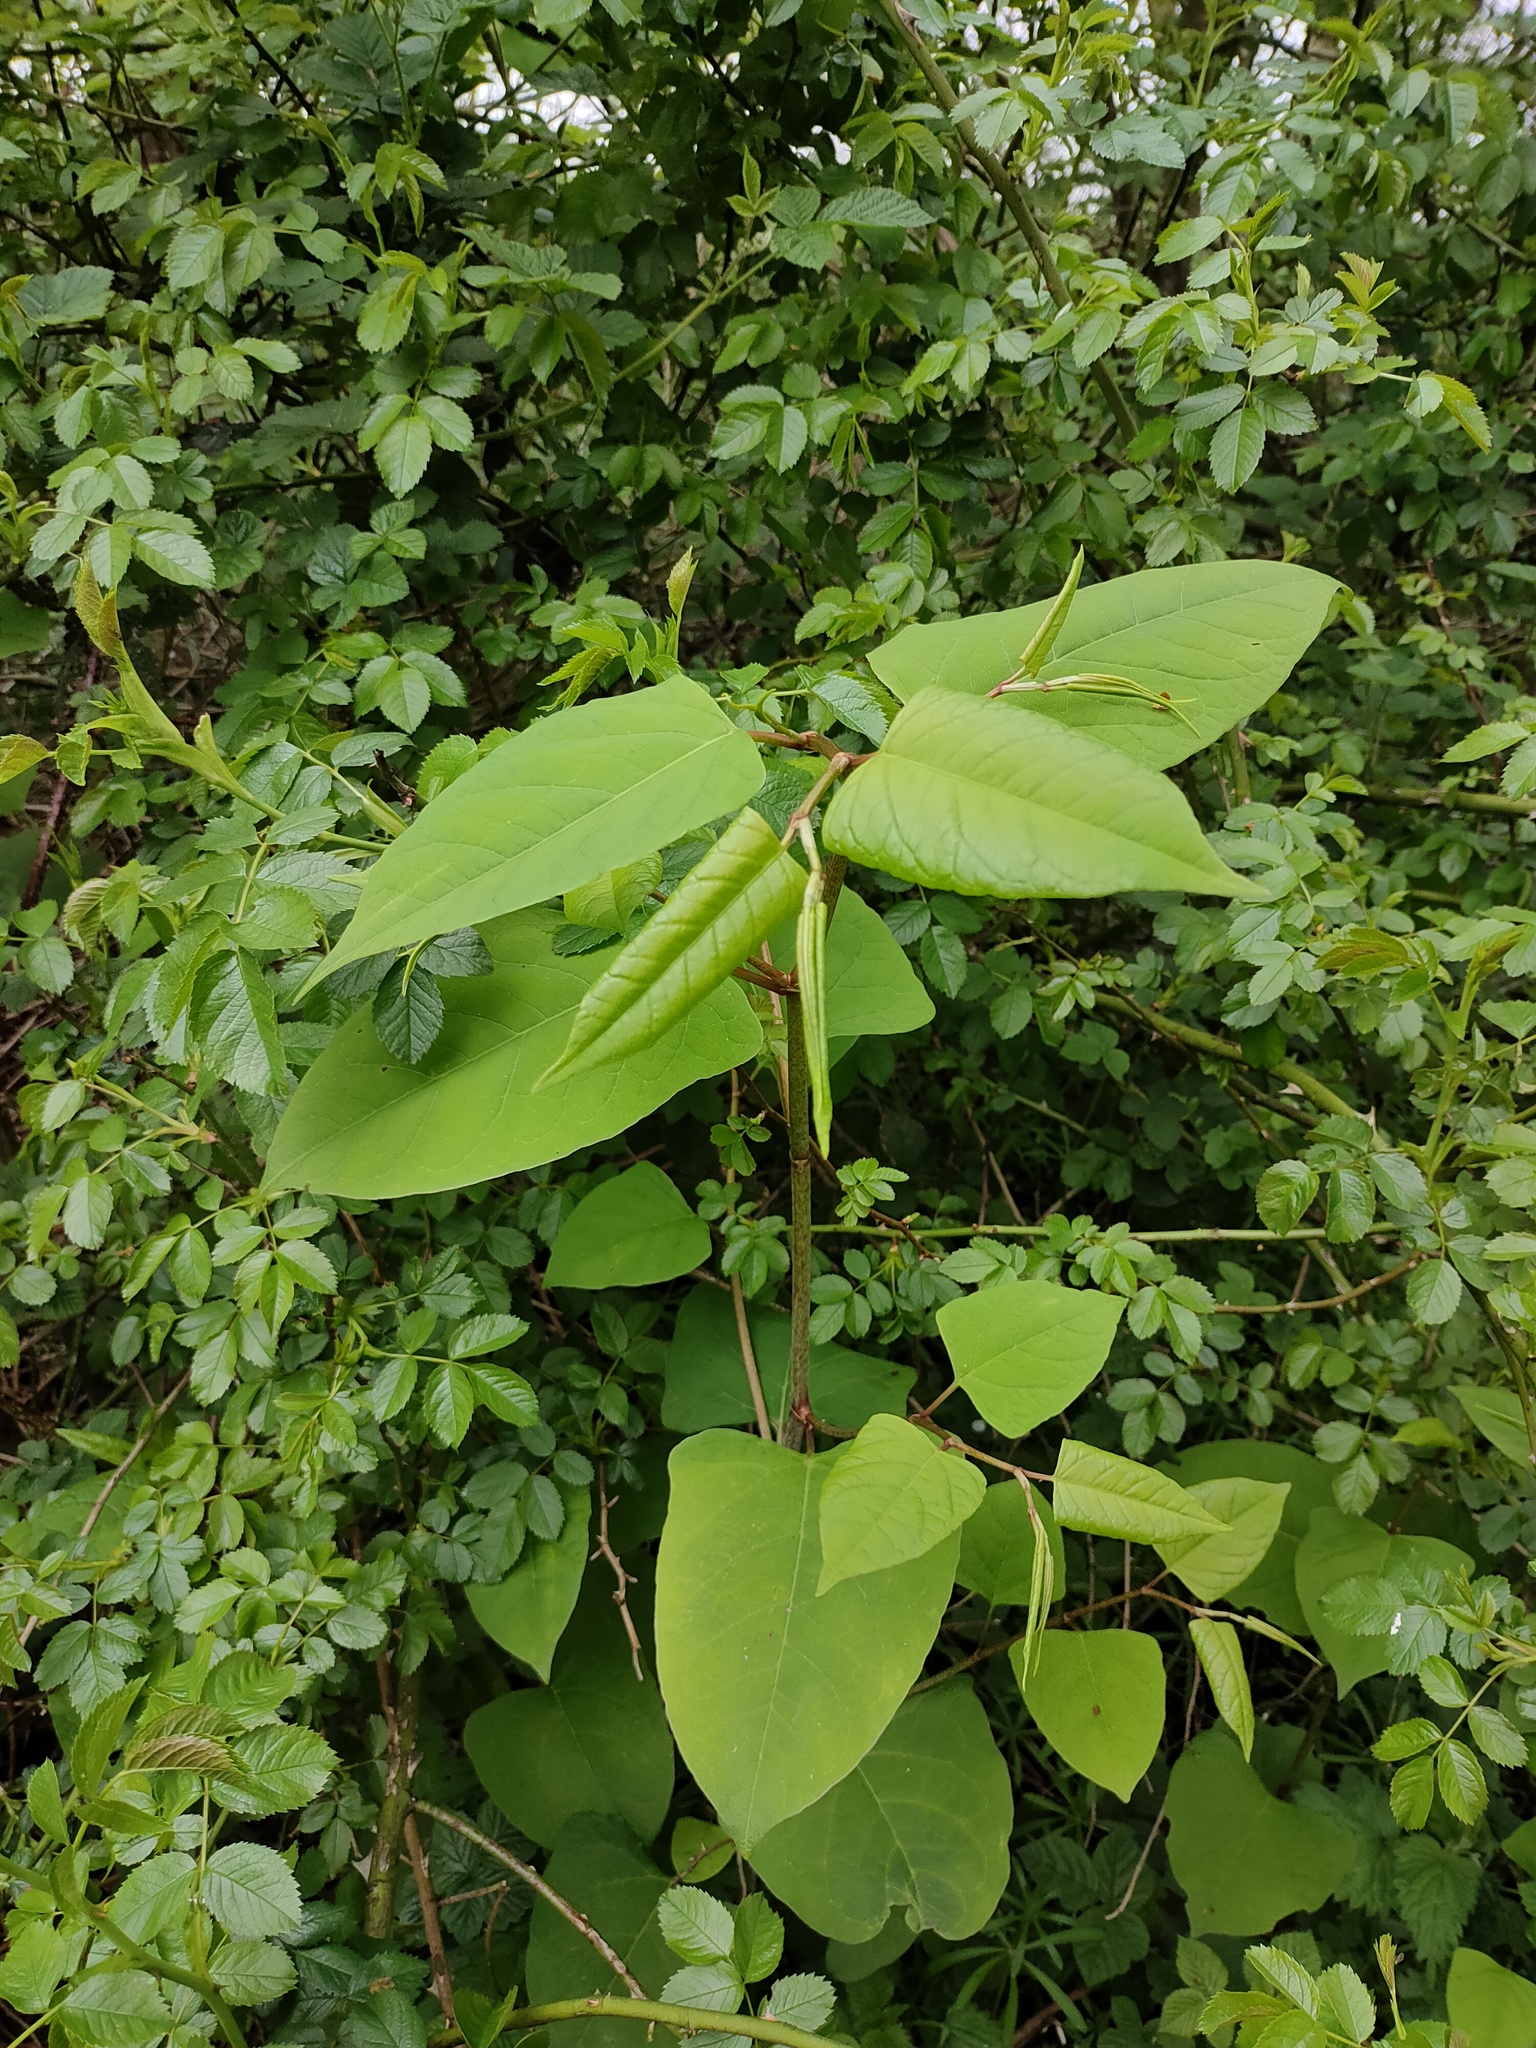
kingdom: Plantae
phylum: Tracheophyta
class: Magnoliopsida
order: Caryophyllales
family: Polygonaceae
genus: Reynoutria
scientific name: Reynoutria japonica
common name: Japanese knotweed
